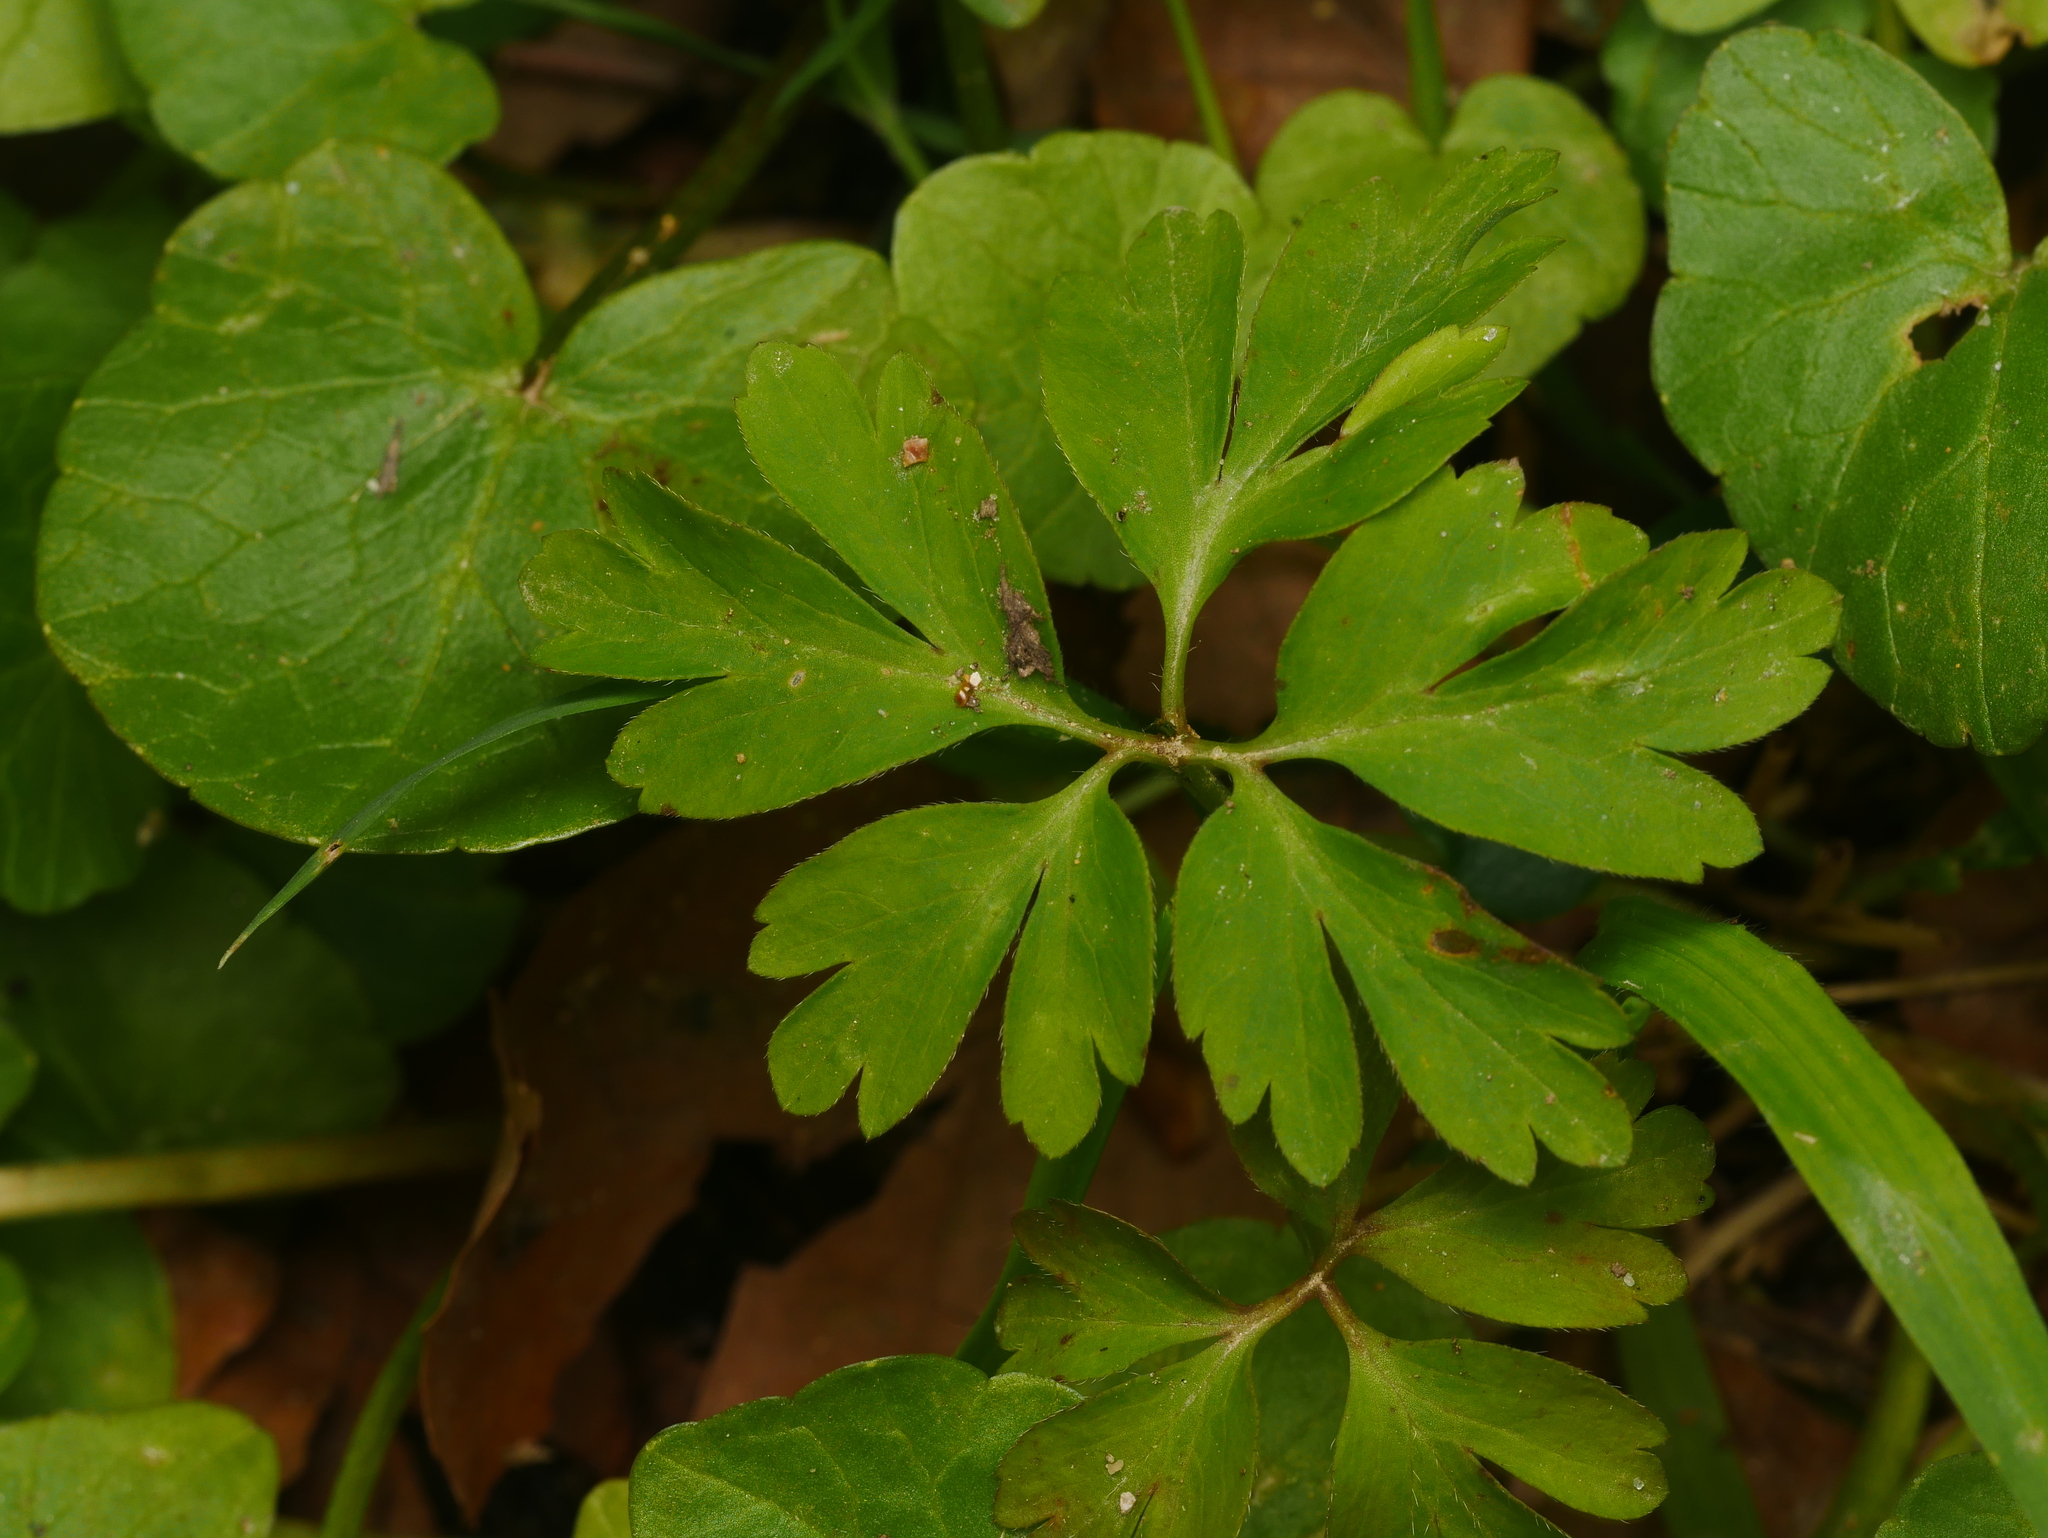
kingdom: Plantae
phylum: Tracheophyta
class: Magnoliopsida
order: Ranunculales
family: Ranunculaceae
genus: Anemone
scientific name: Anemone nemorosa
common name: Wood anemone
